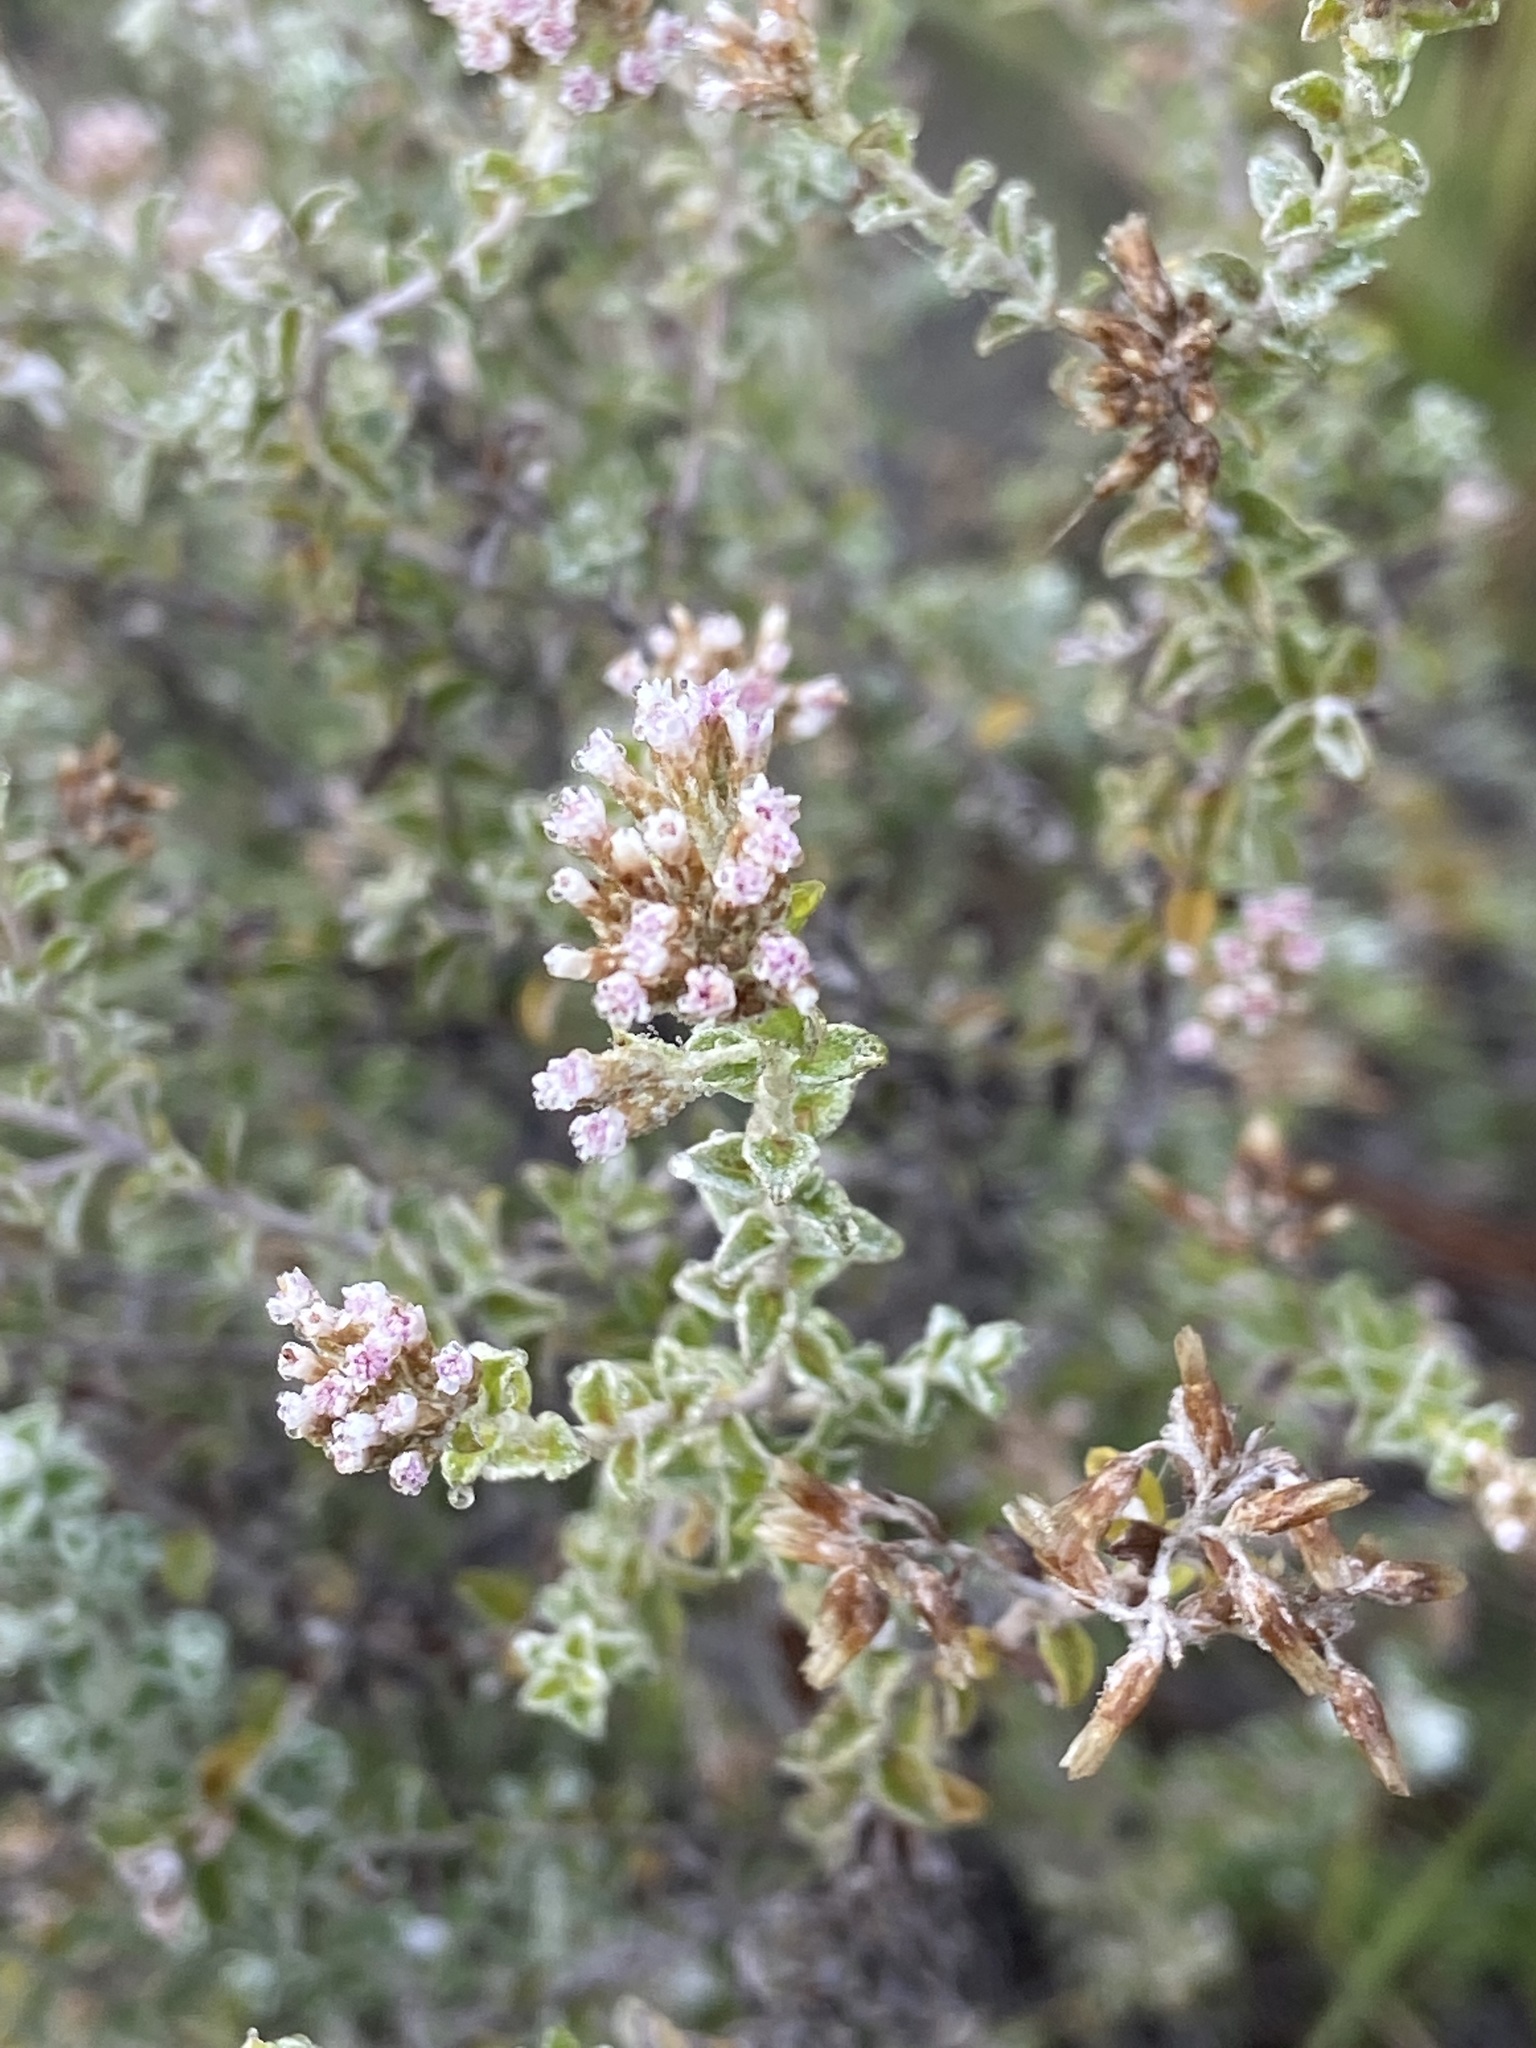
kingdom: Plantae
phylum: Tracheophyta
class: Magnoliopsida
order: Asterales
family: Asteraceae
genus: Plecostachys
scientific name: Plecostachys serpyllifolia
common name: Petite licorice
